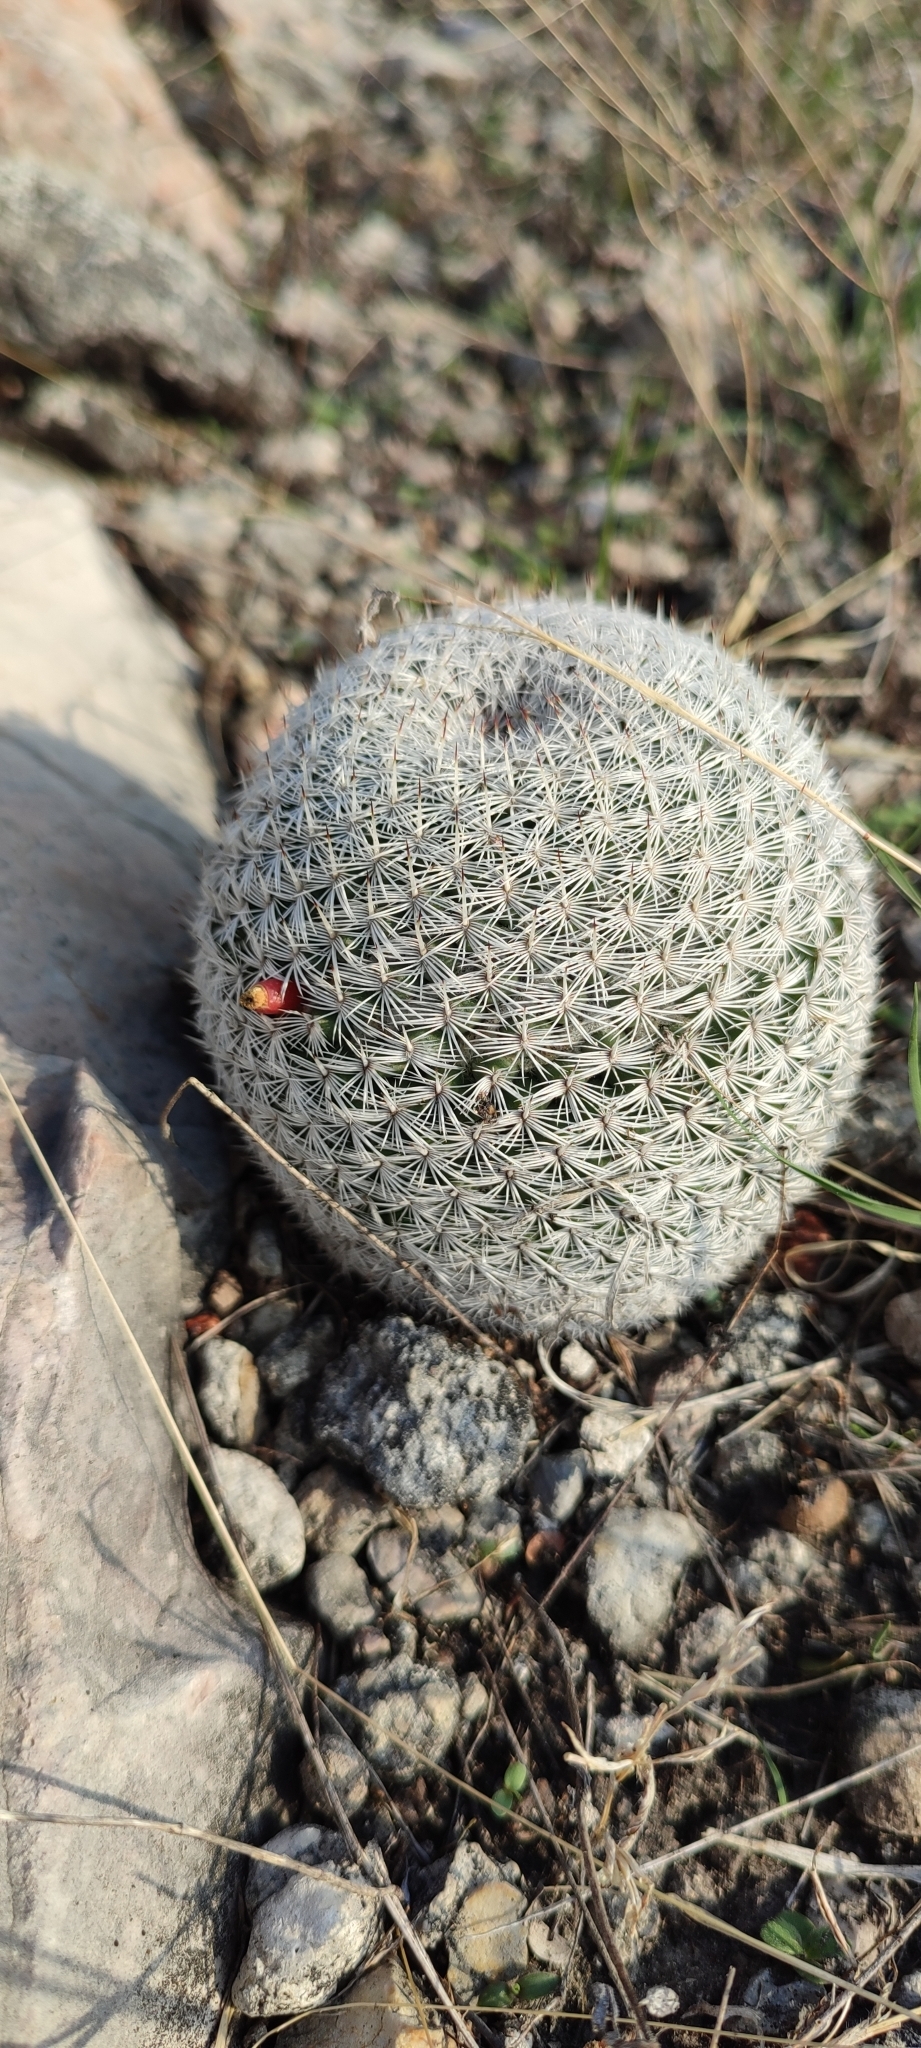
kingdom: Plantae
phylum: Tracheophyta
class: Magnoliopsida
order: Caryophyllales
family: Cactaceae
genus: Mammillaria
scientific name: Mammillaria haageana
